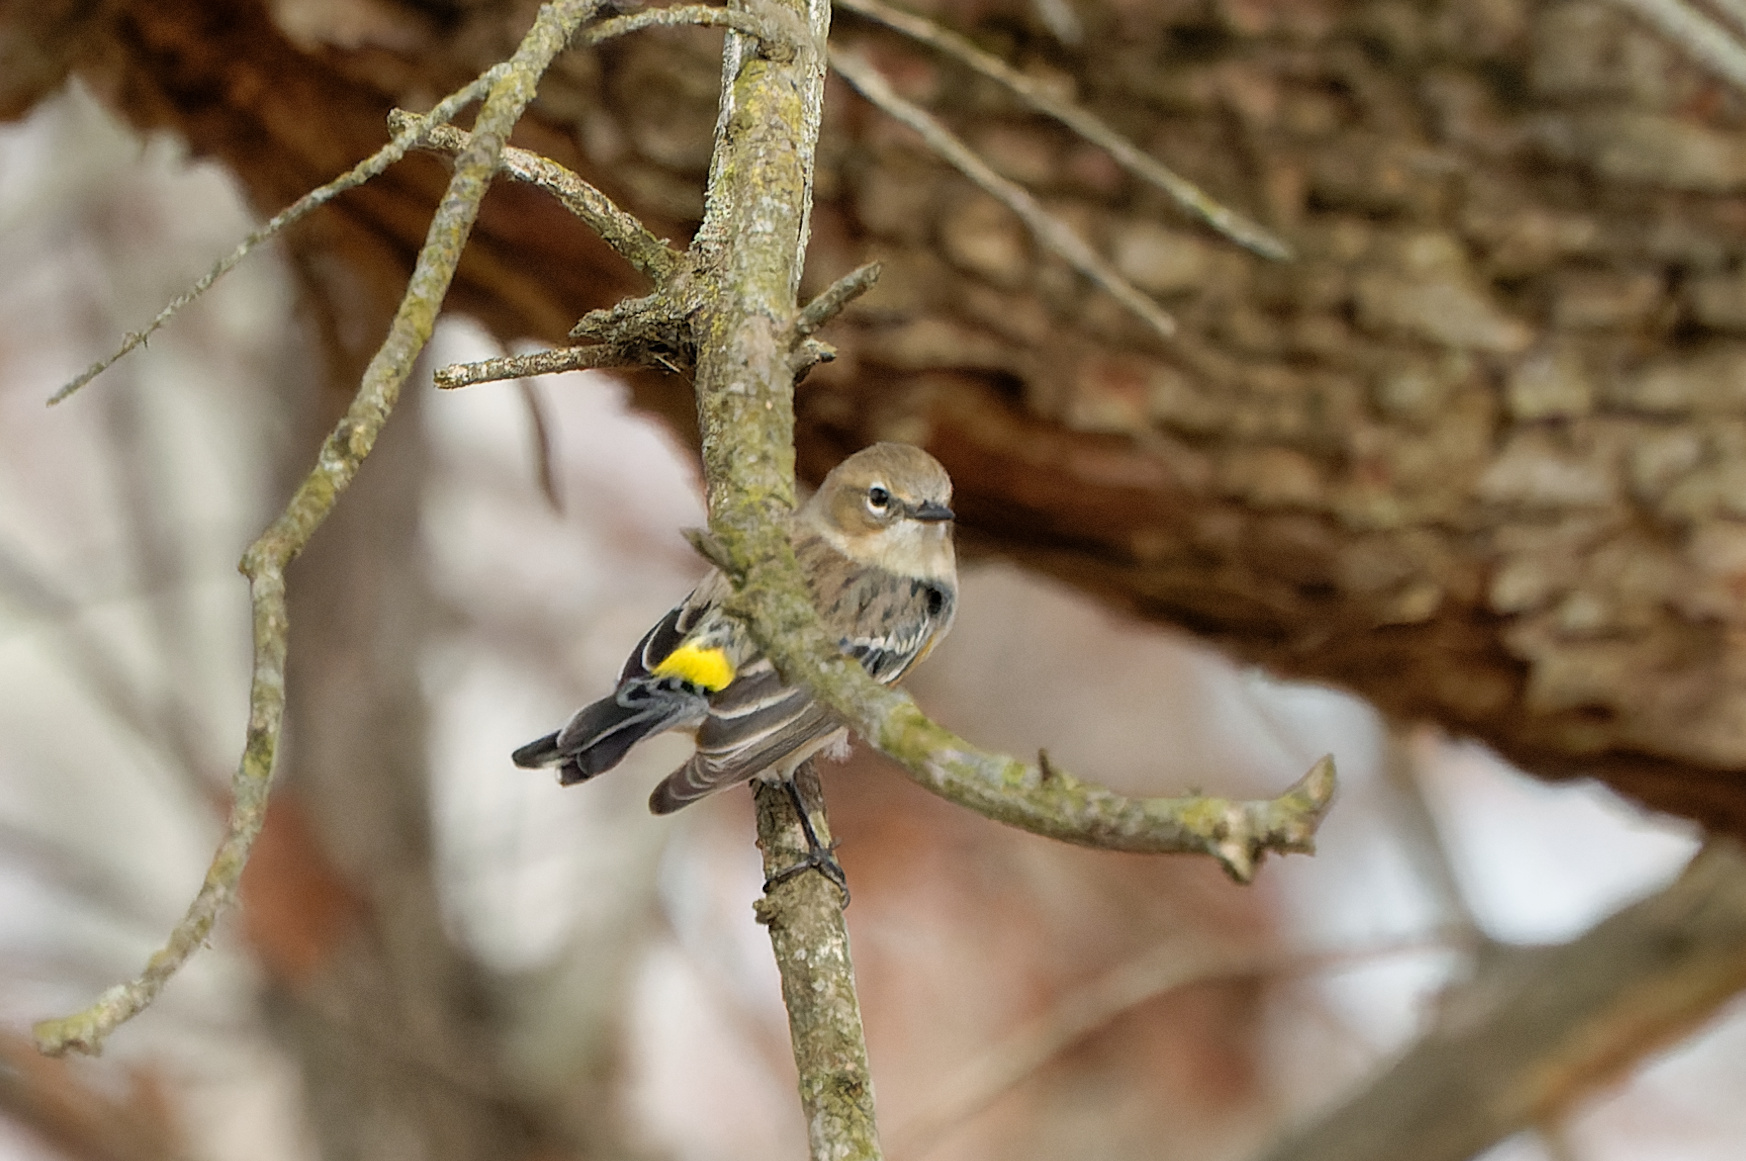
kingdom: Animalia
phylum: Chordata
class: Aves
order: Passeriformes
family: Parulidae
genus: Setophaga
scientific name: Setophaga coronata
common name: Myrtle warbler
